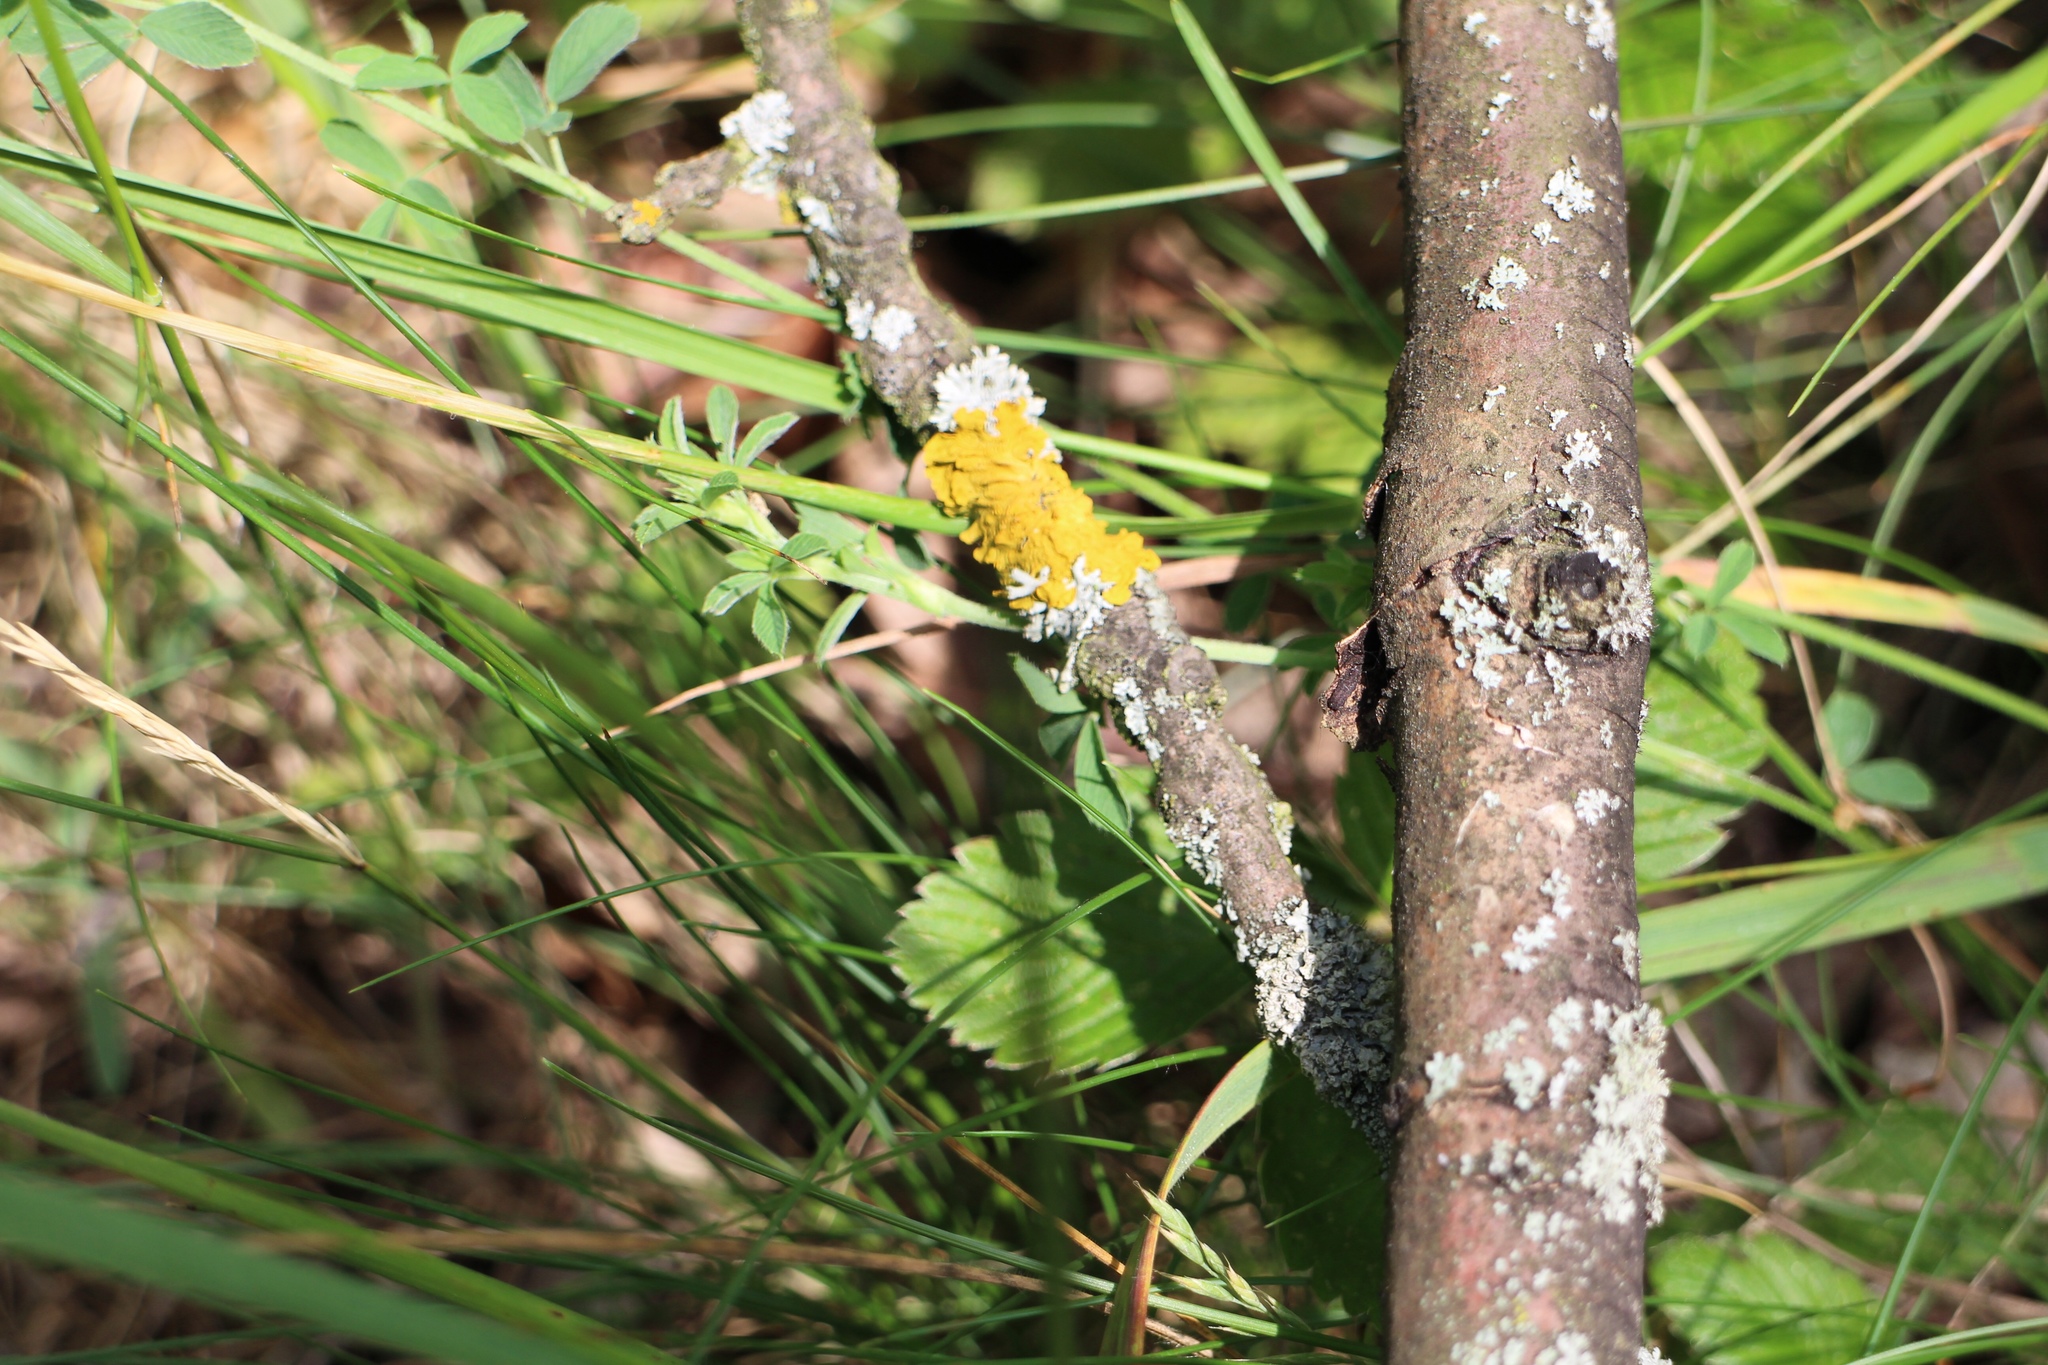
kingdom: Fungi
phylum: Ascomycota
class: Lecanoromycetes
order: Teloschistales
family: Teloschistaceae
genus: Xanthoria
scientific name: Xanthoria parietina
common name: Common orange lichen
